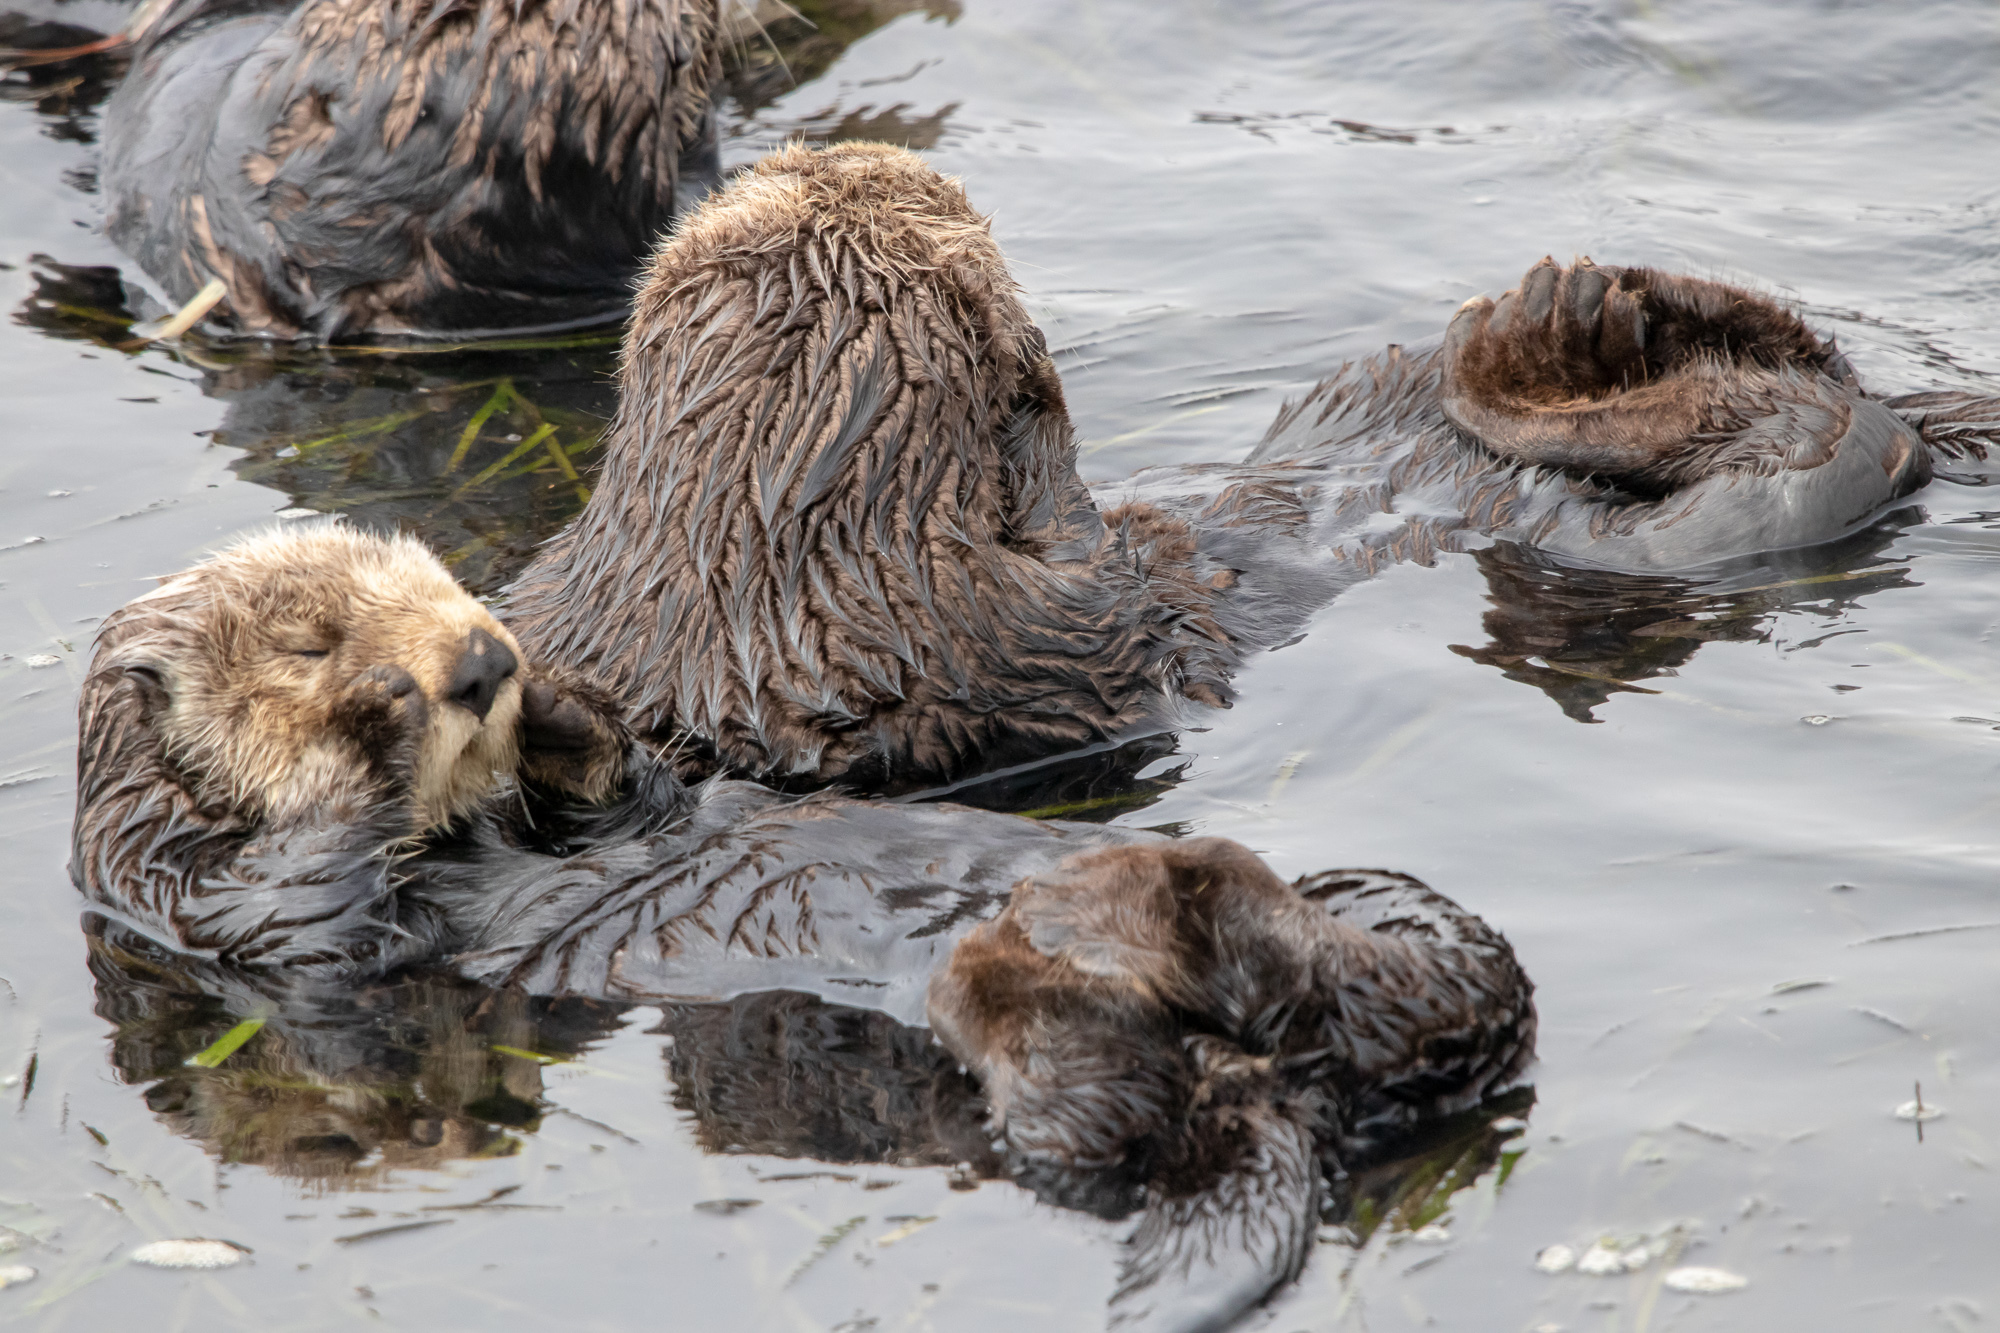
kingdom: Animalia
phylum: Chordata
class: Mammalia
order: Carnivora
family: Mustelidae
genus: Enhydra
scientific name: Enhydra lutris
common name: Sea otter
